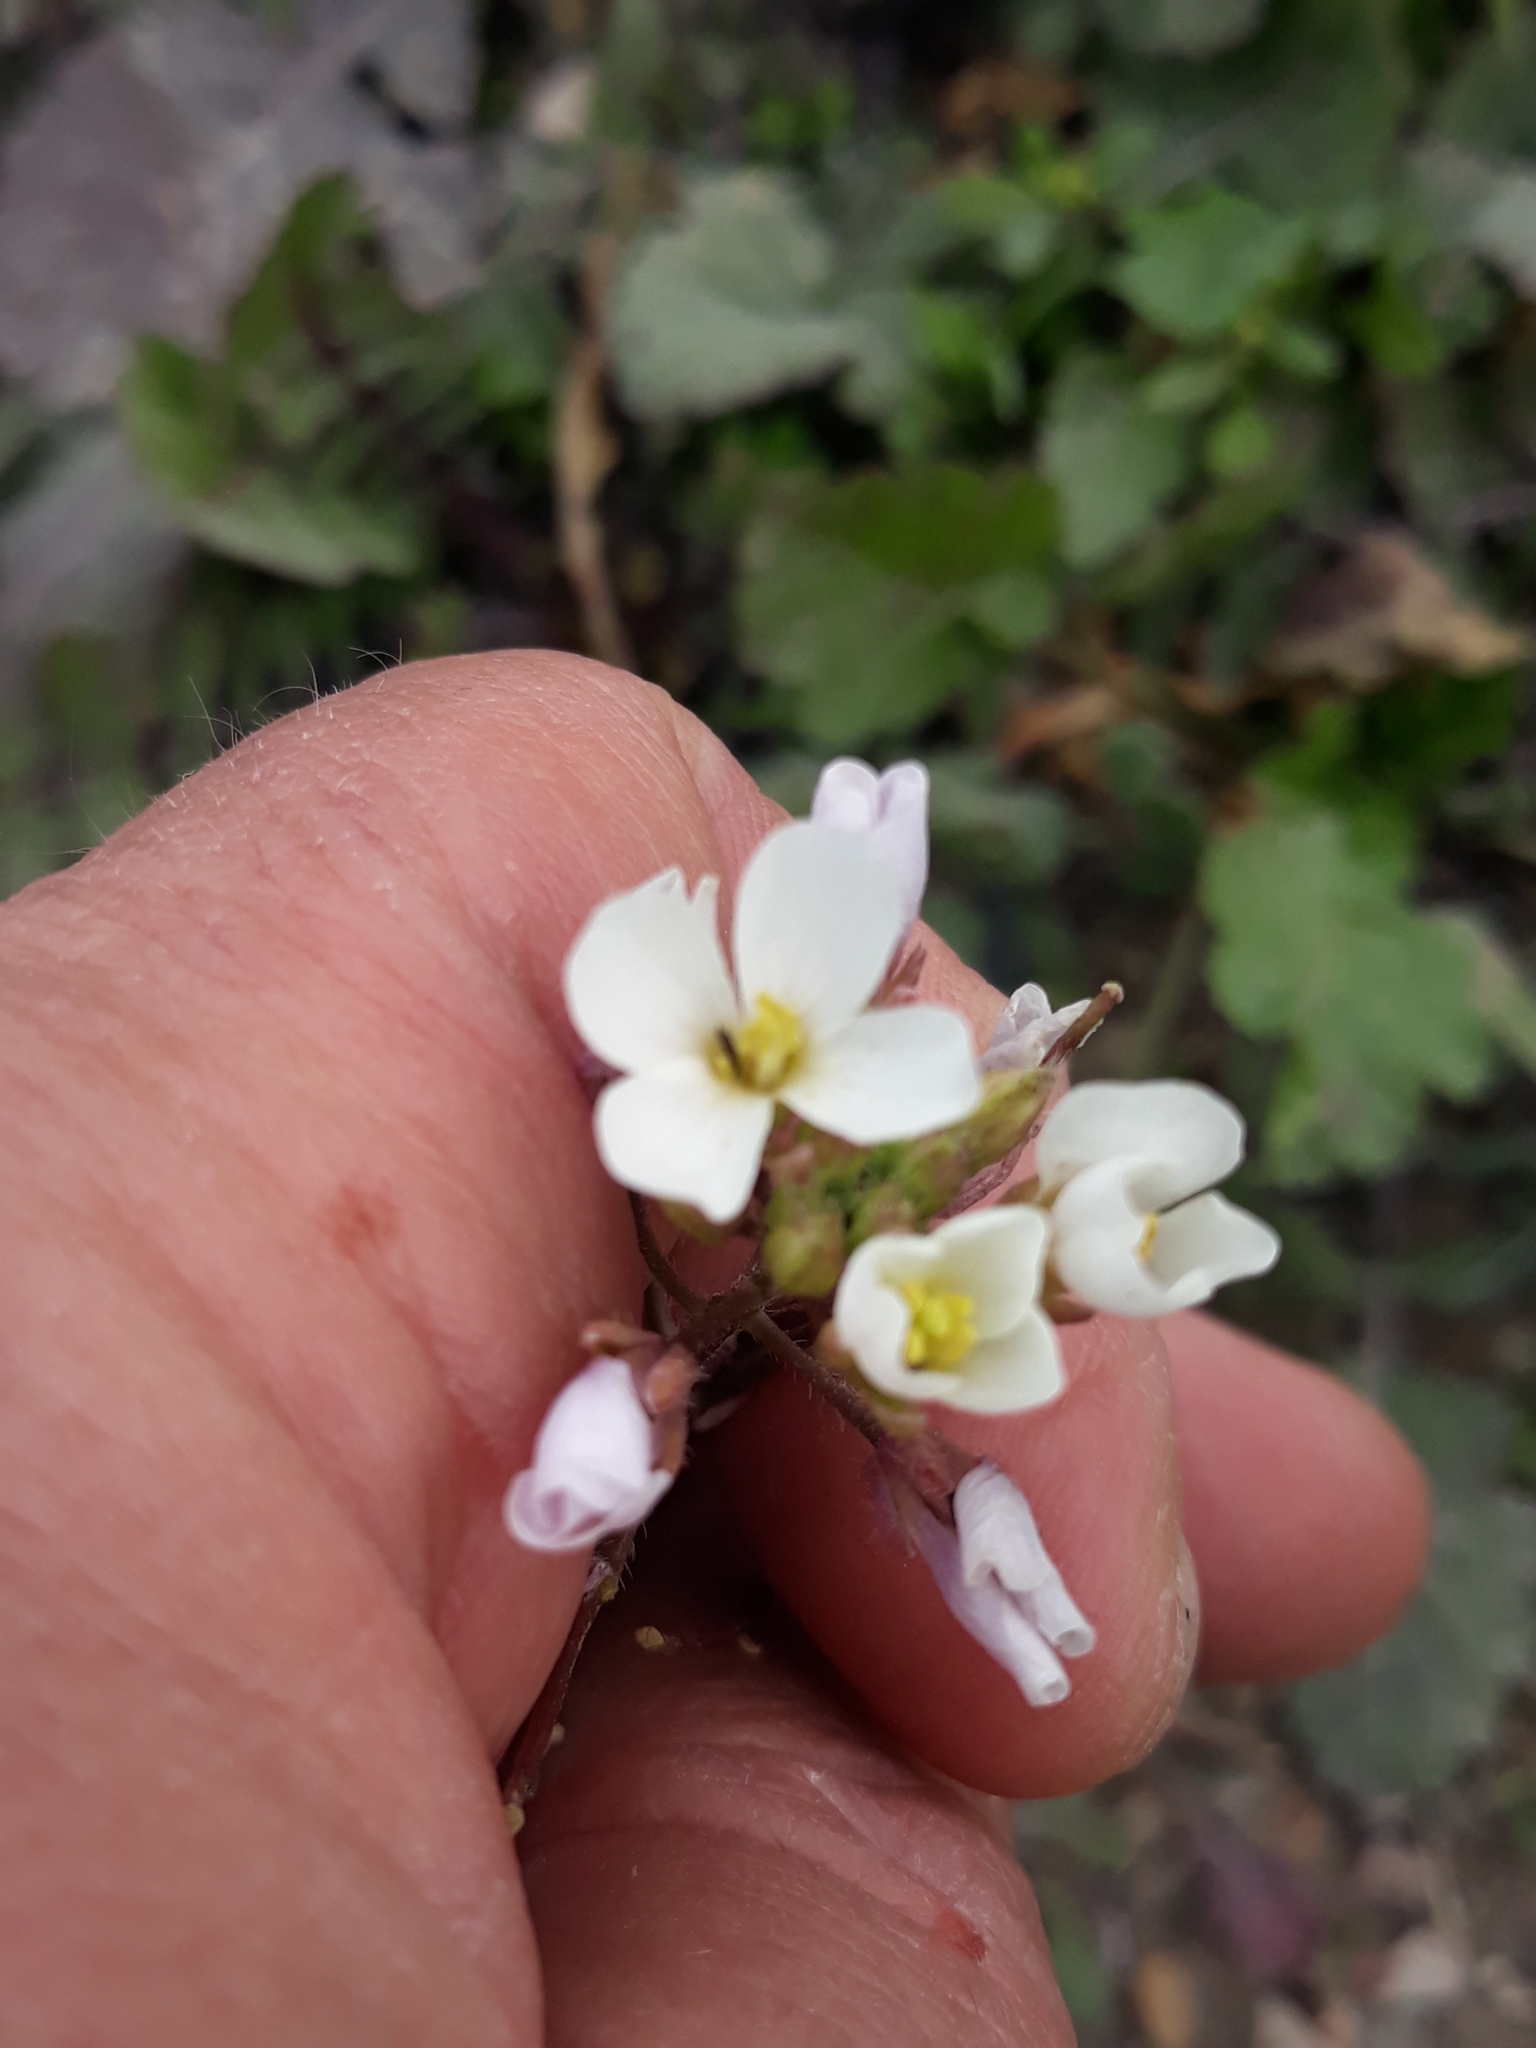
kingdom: Plantae
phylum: Tracheophyta
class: Magnoliopsida
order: Brassicales
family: Brassicaceae
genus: Diplotaxis
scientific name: Diplotaxis erucoides
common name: White rocket
